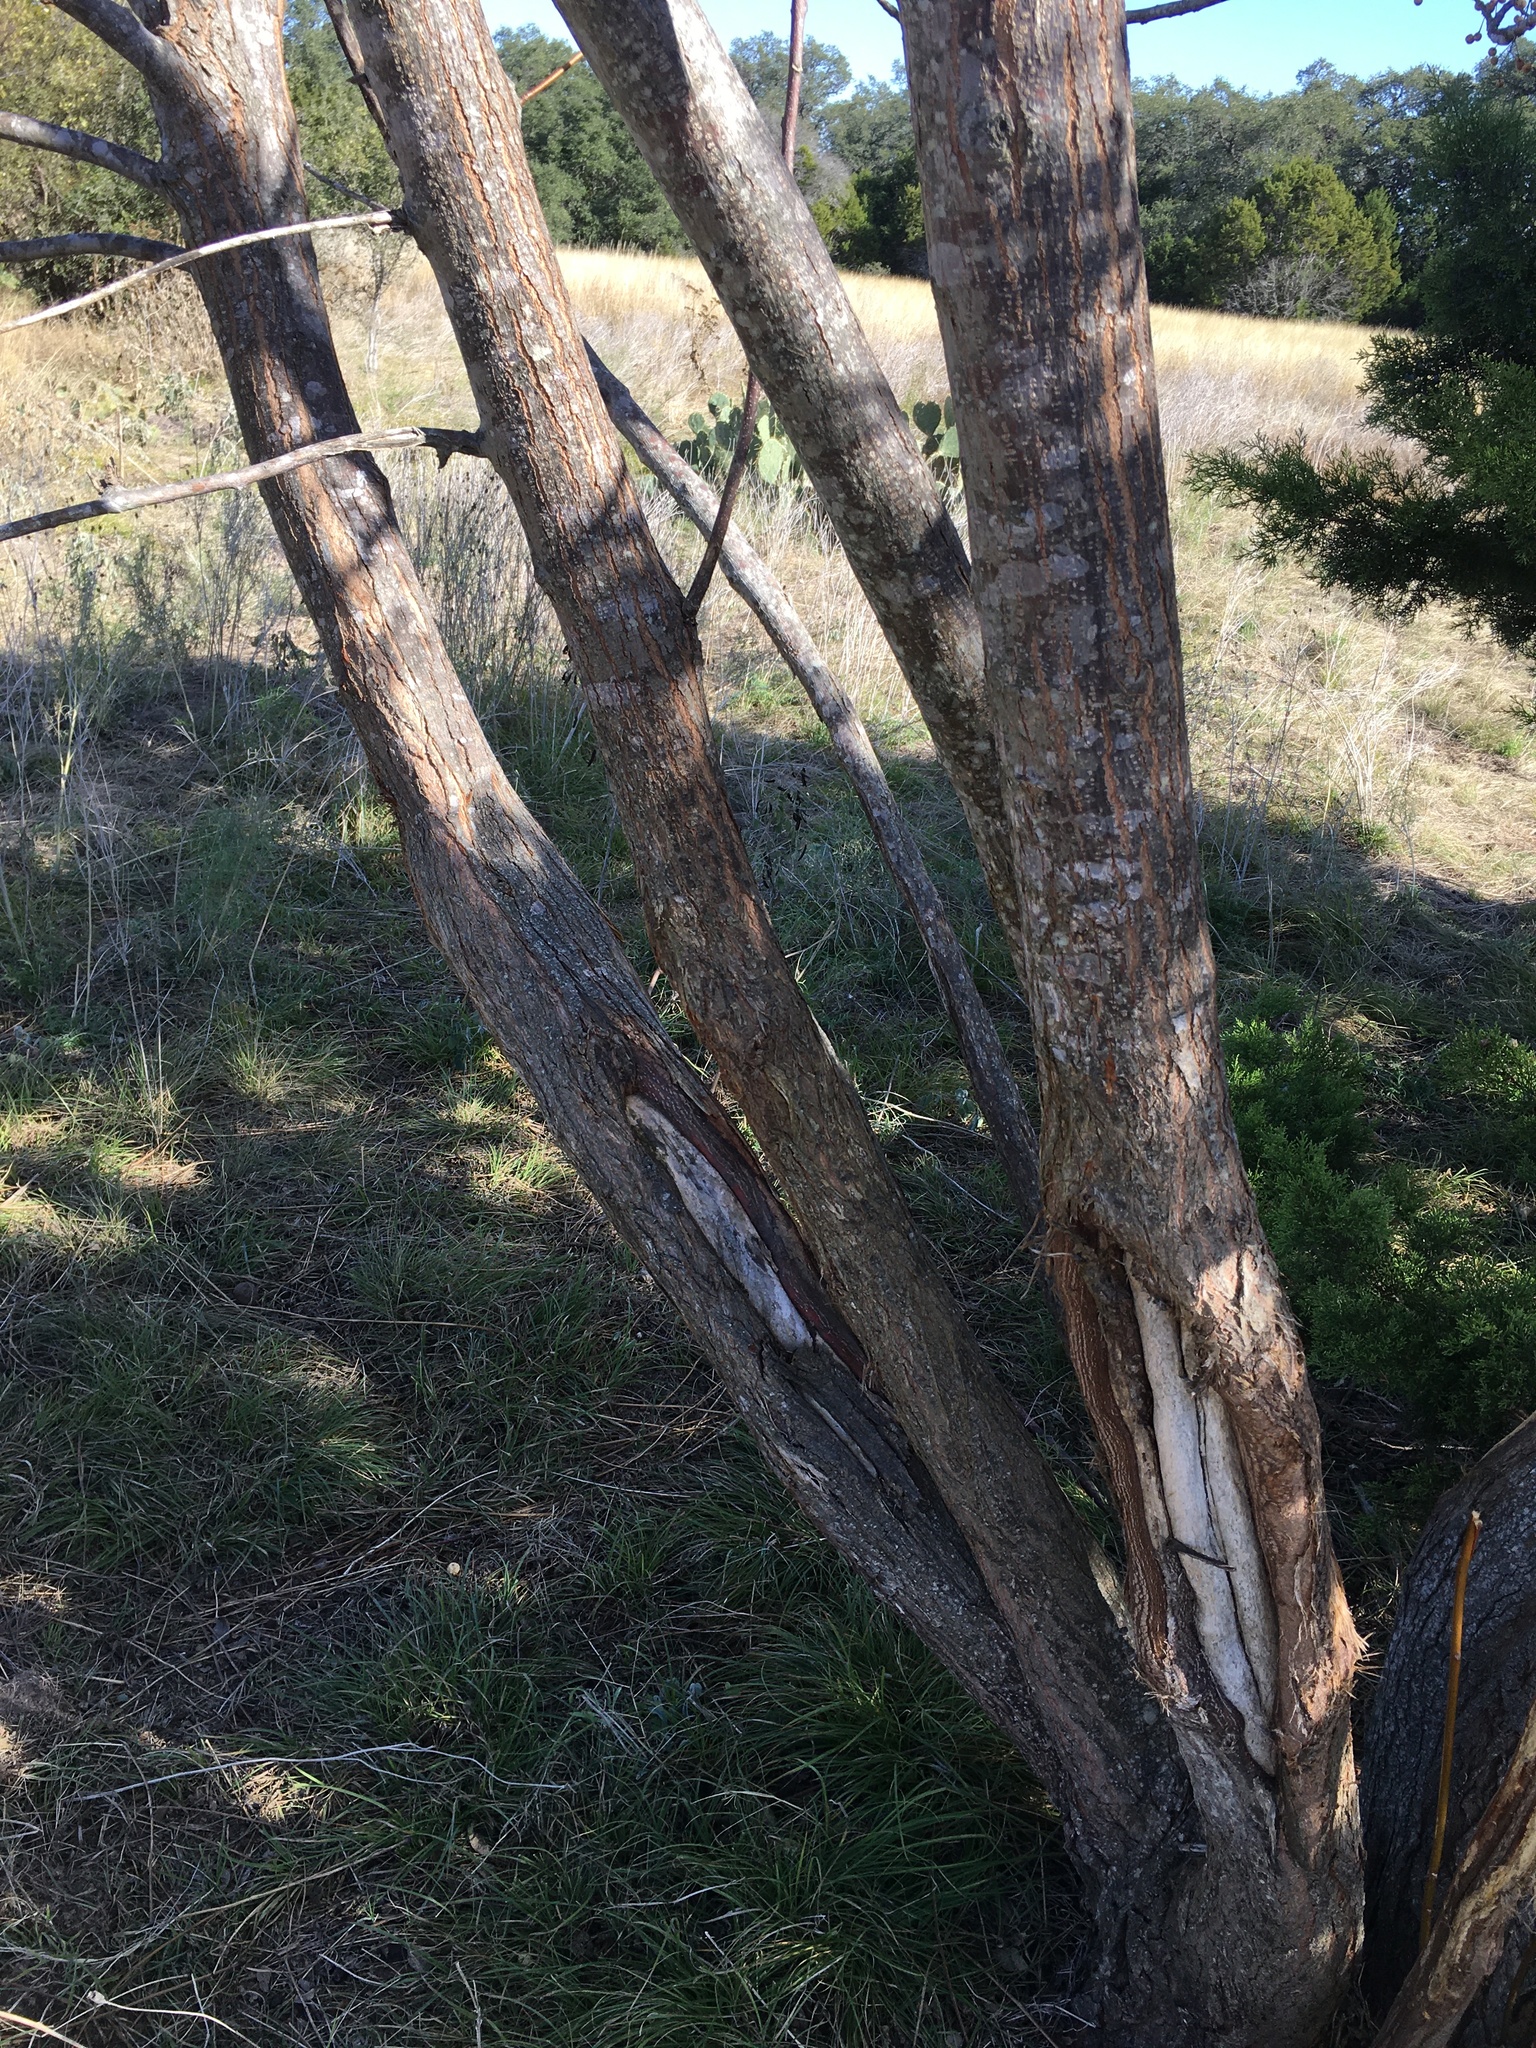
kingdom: Plantae
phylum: Tracheophyta
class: Magnoliopsida
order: Sapindales
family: Meliaceae
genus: Melia
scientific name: Melia azedarach
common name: Chinaberrytree
